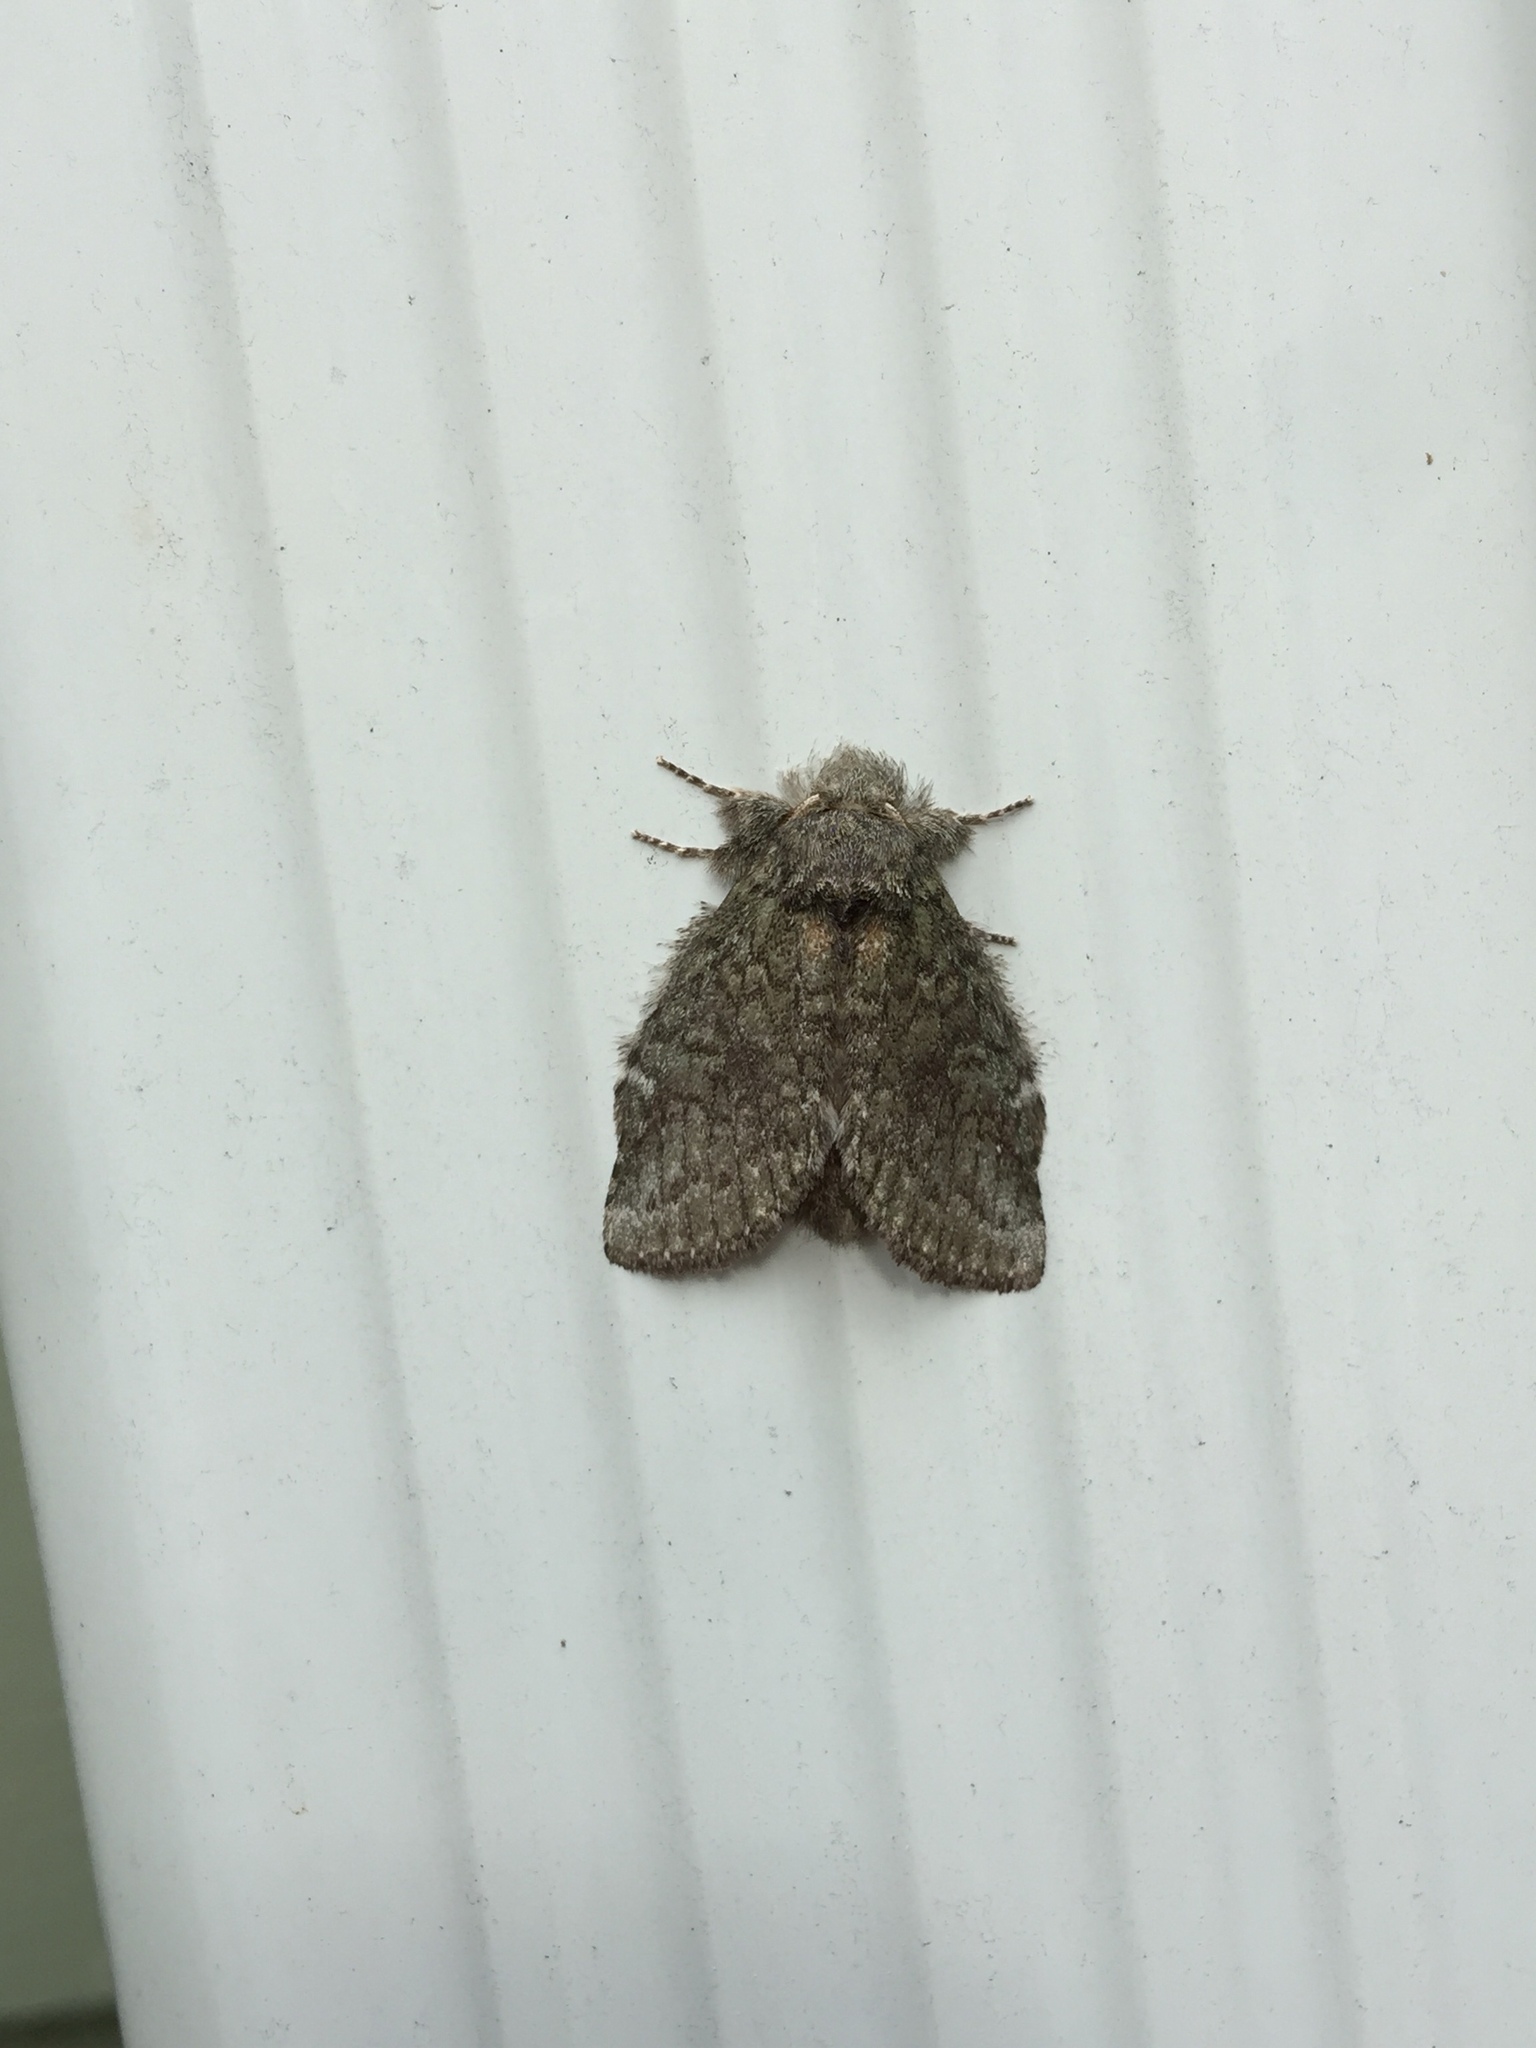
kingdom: Animalia
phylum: Arthropoda
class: Insecta
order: Lepidoptera
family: Notodontidae
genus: Disphragis
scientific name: Disphragis Cecrita guttivitta
